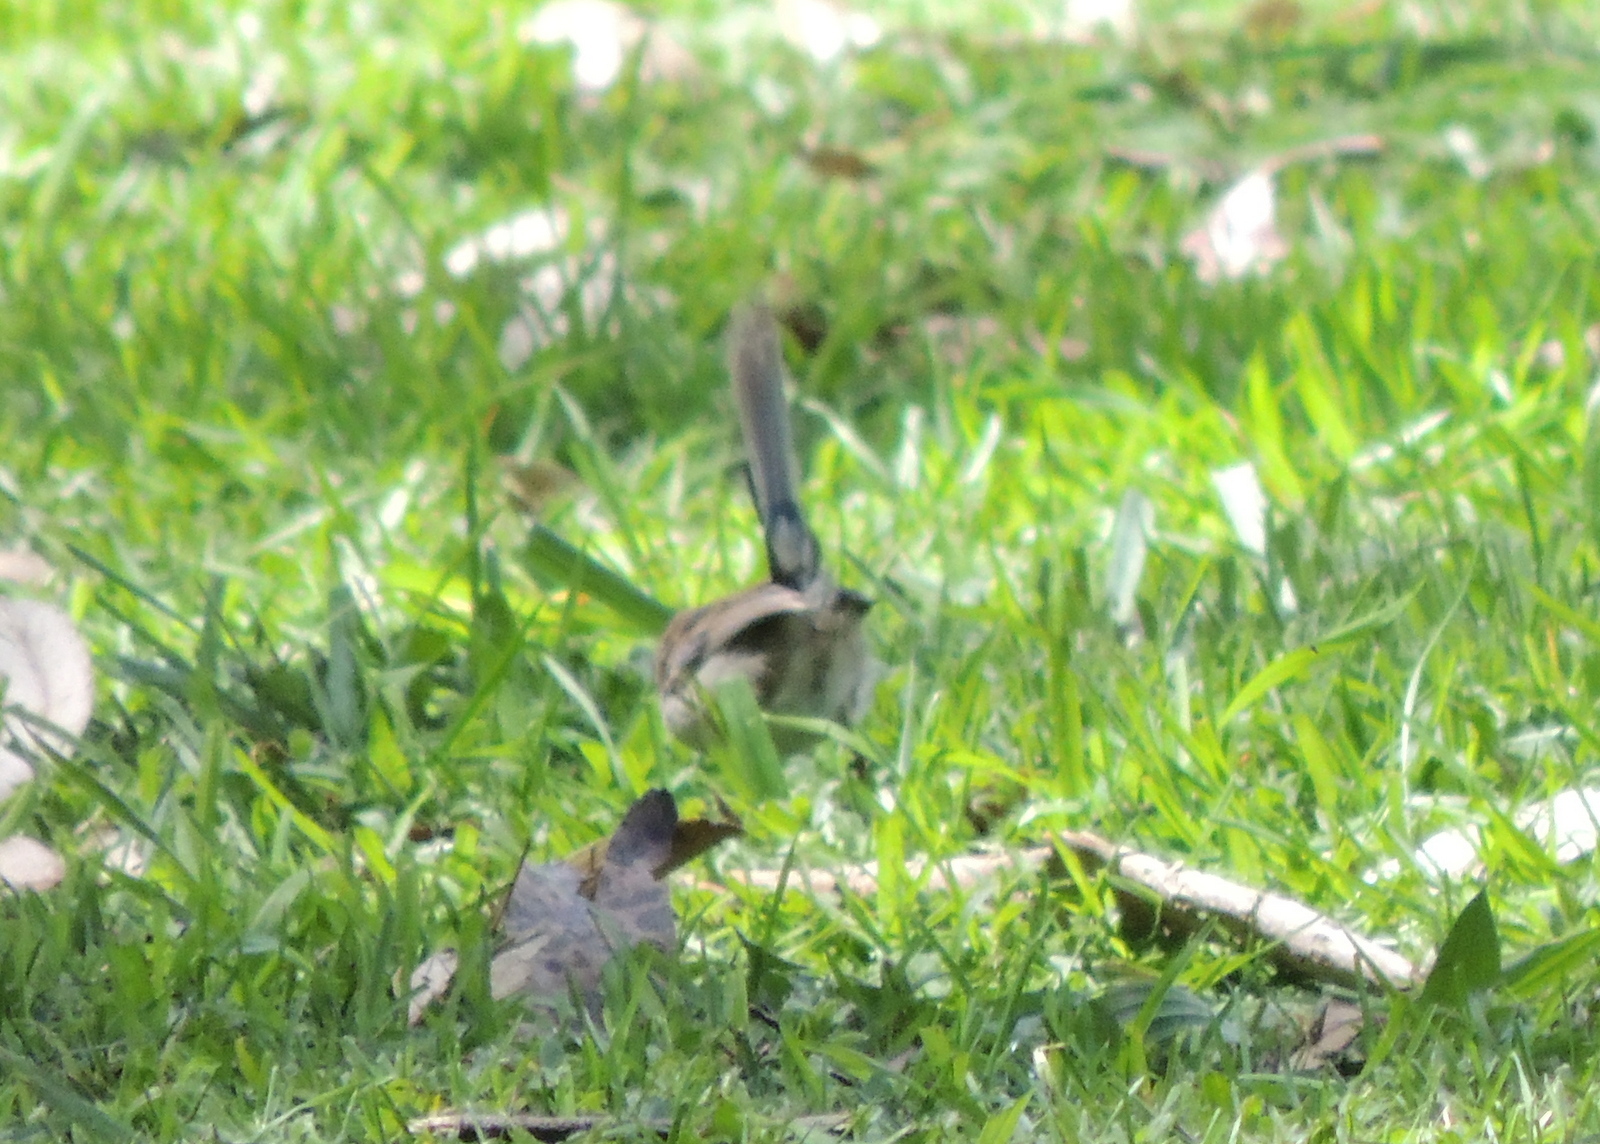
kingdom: Animalia
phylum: Chordata
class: Aves
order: Passeriformes
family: Maluridae
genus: Malurus
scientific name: Malurus cyaneus
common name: Superb fairywren
